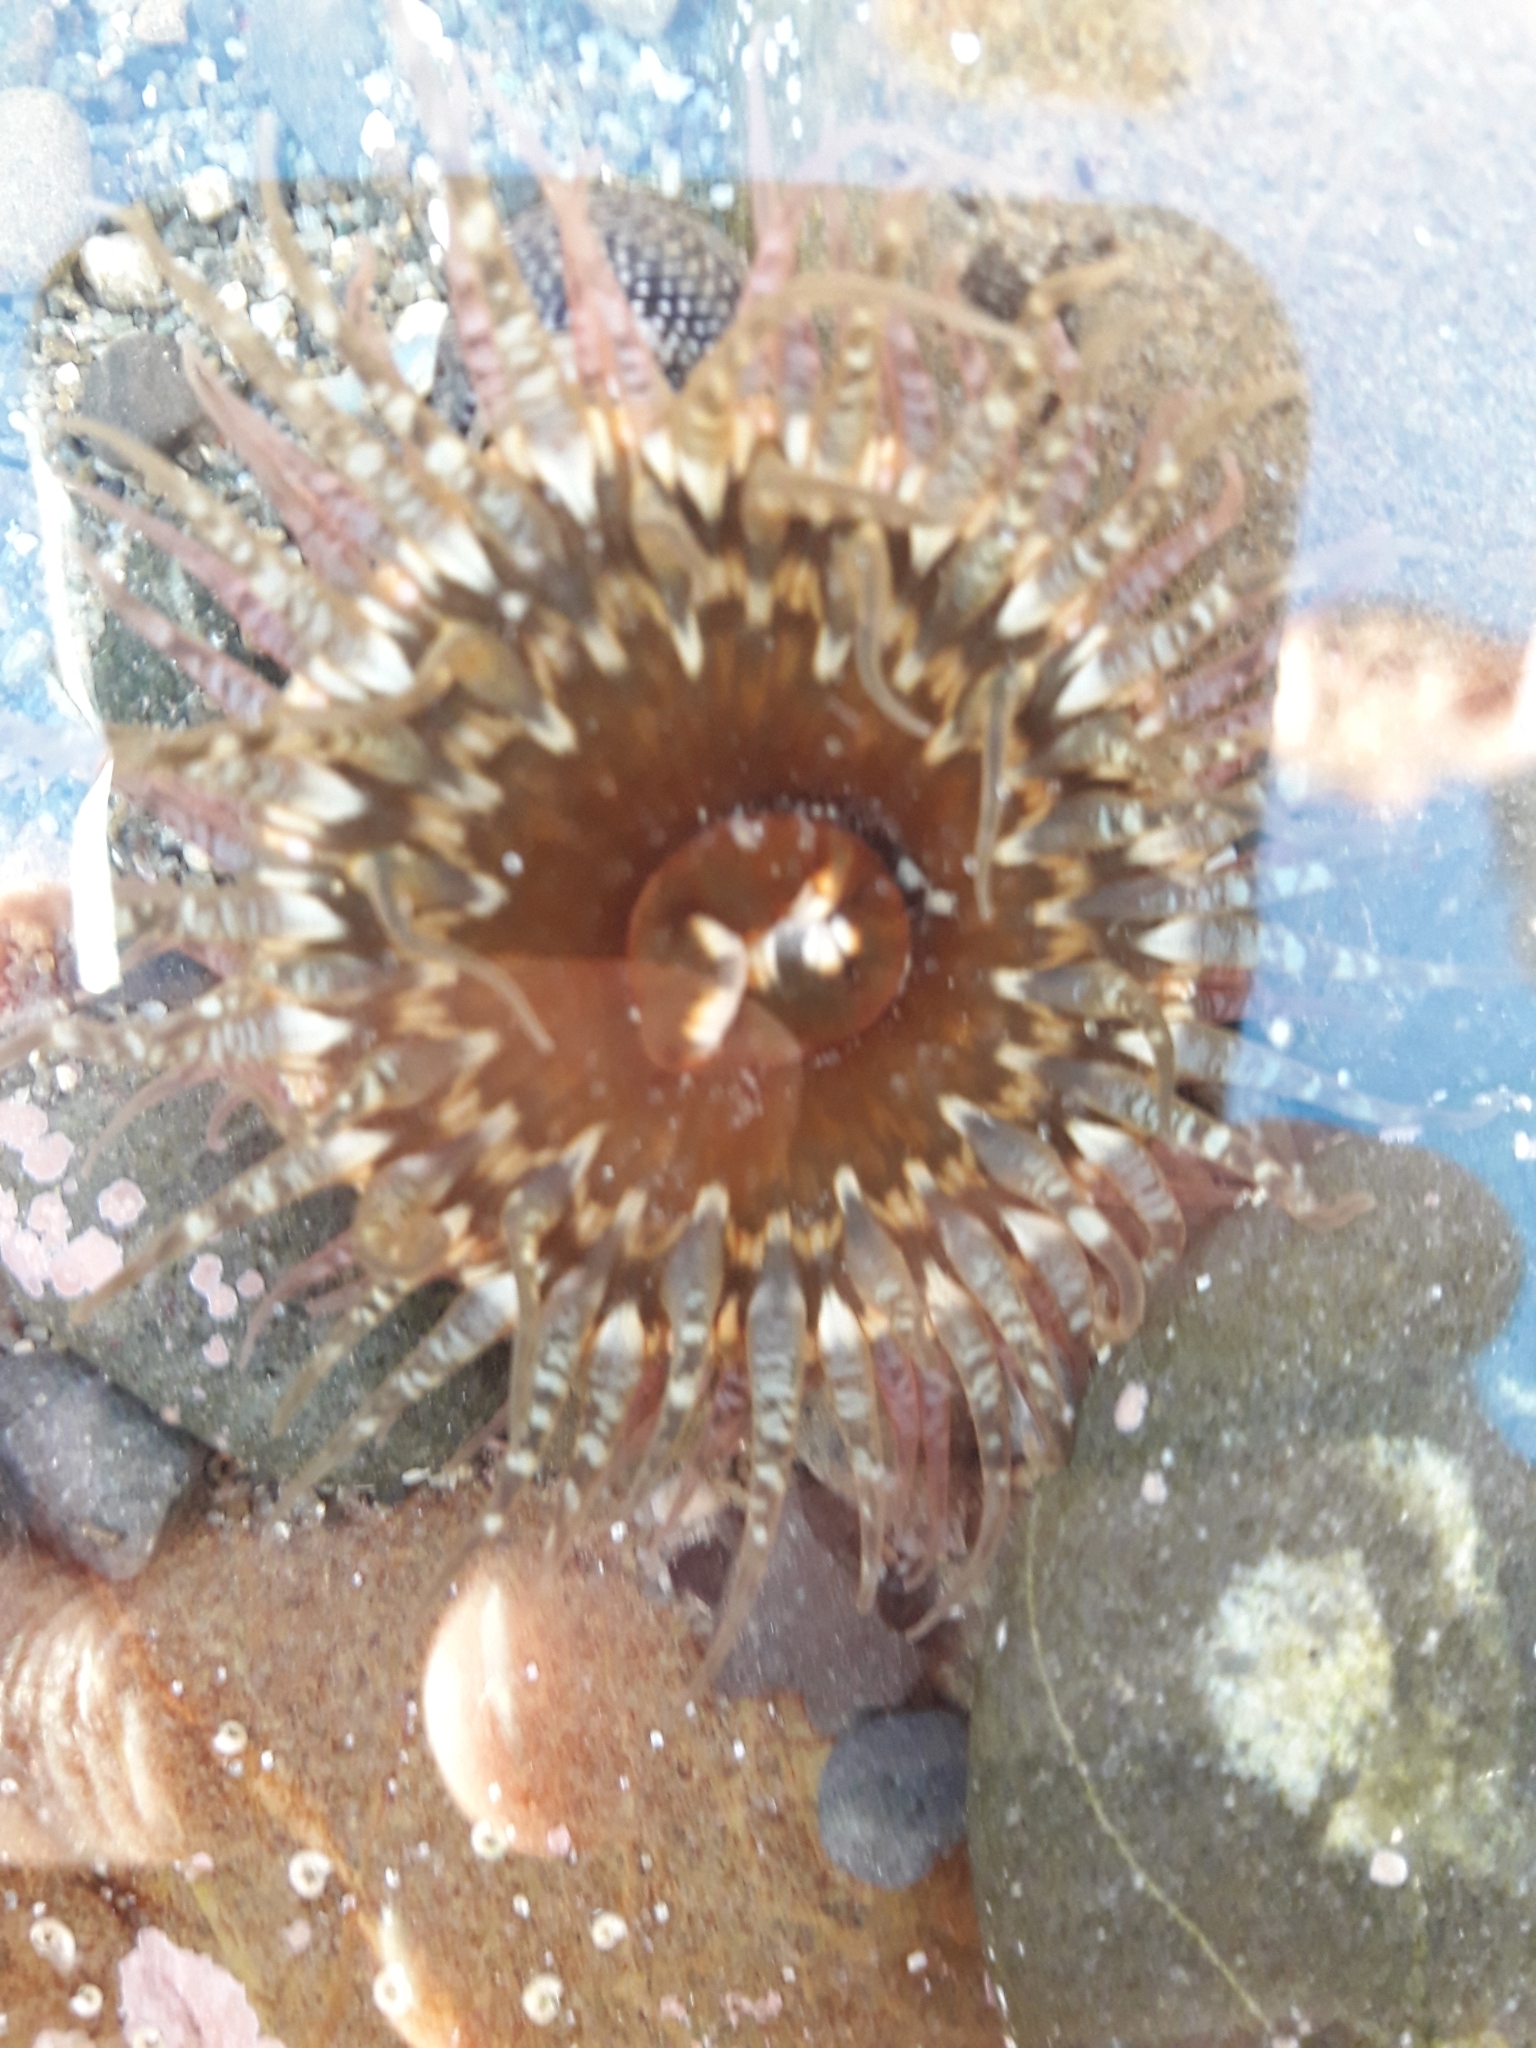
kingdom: Animalia
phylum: Cnidaria
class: Anthozoa
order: Actiniaria
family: Actiniidae
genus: Oulactis
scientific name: Oulactis muscosa
